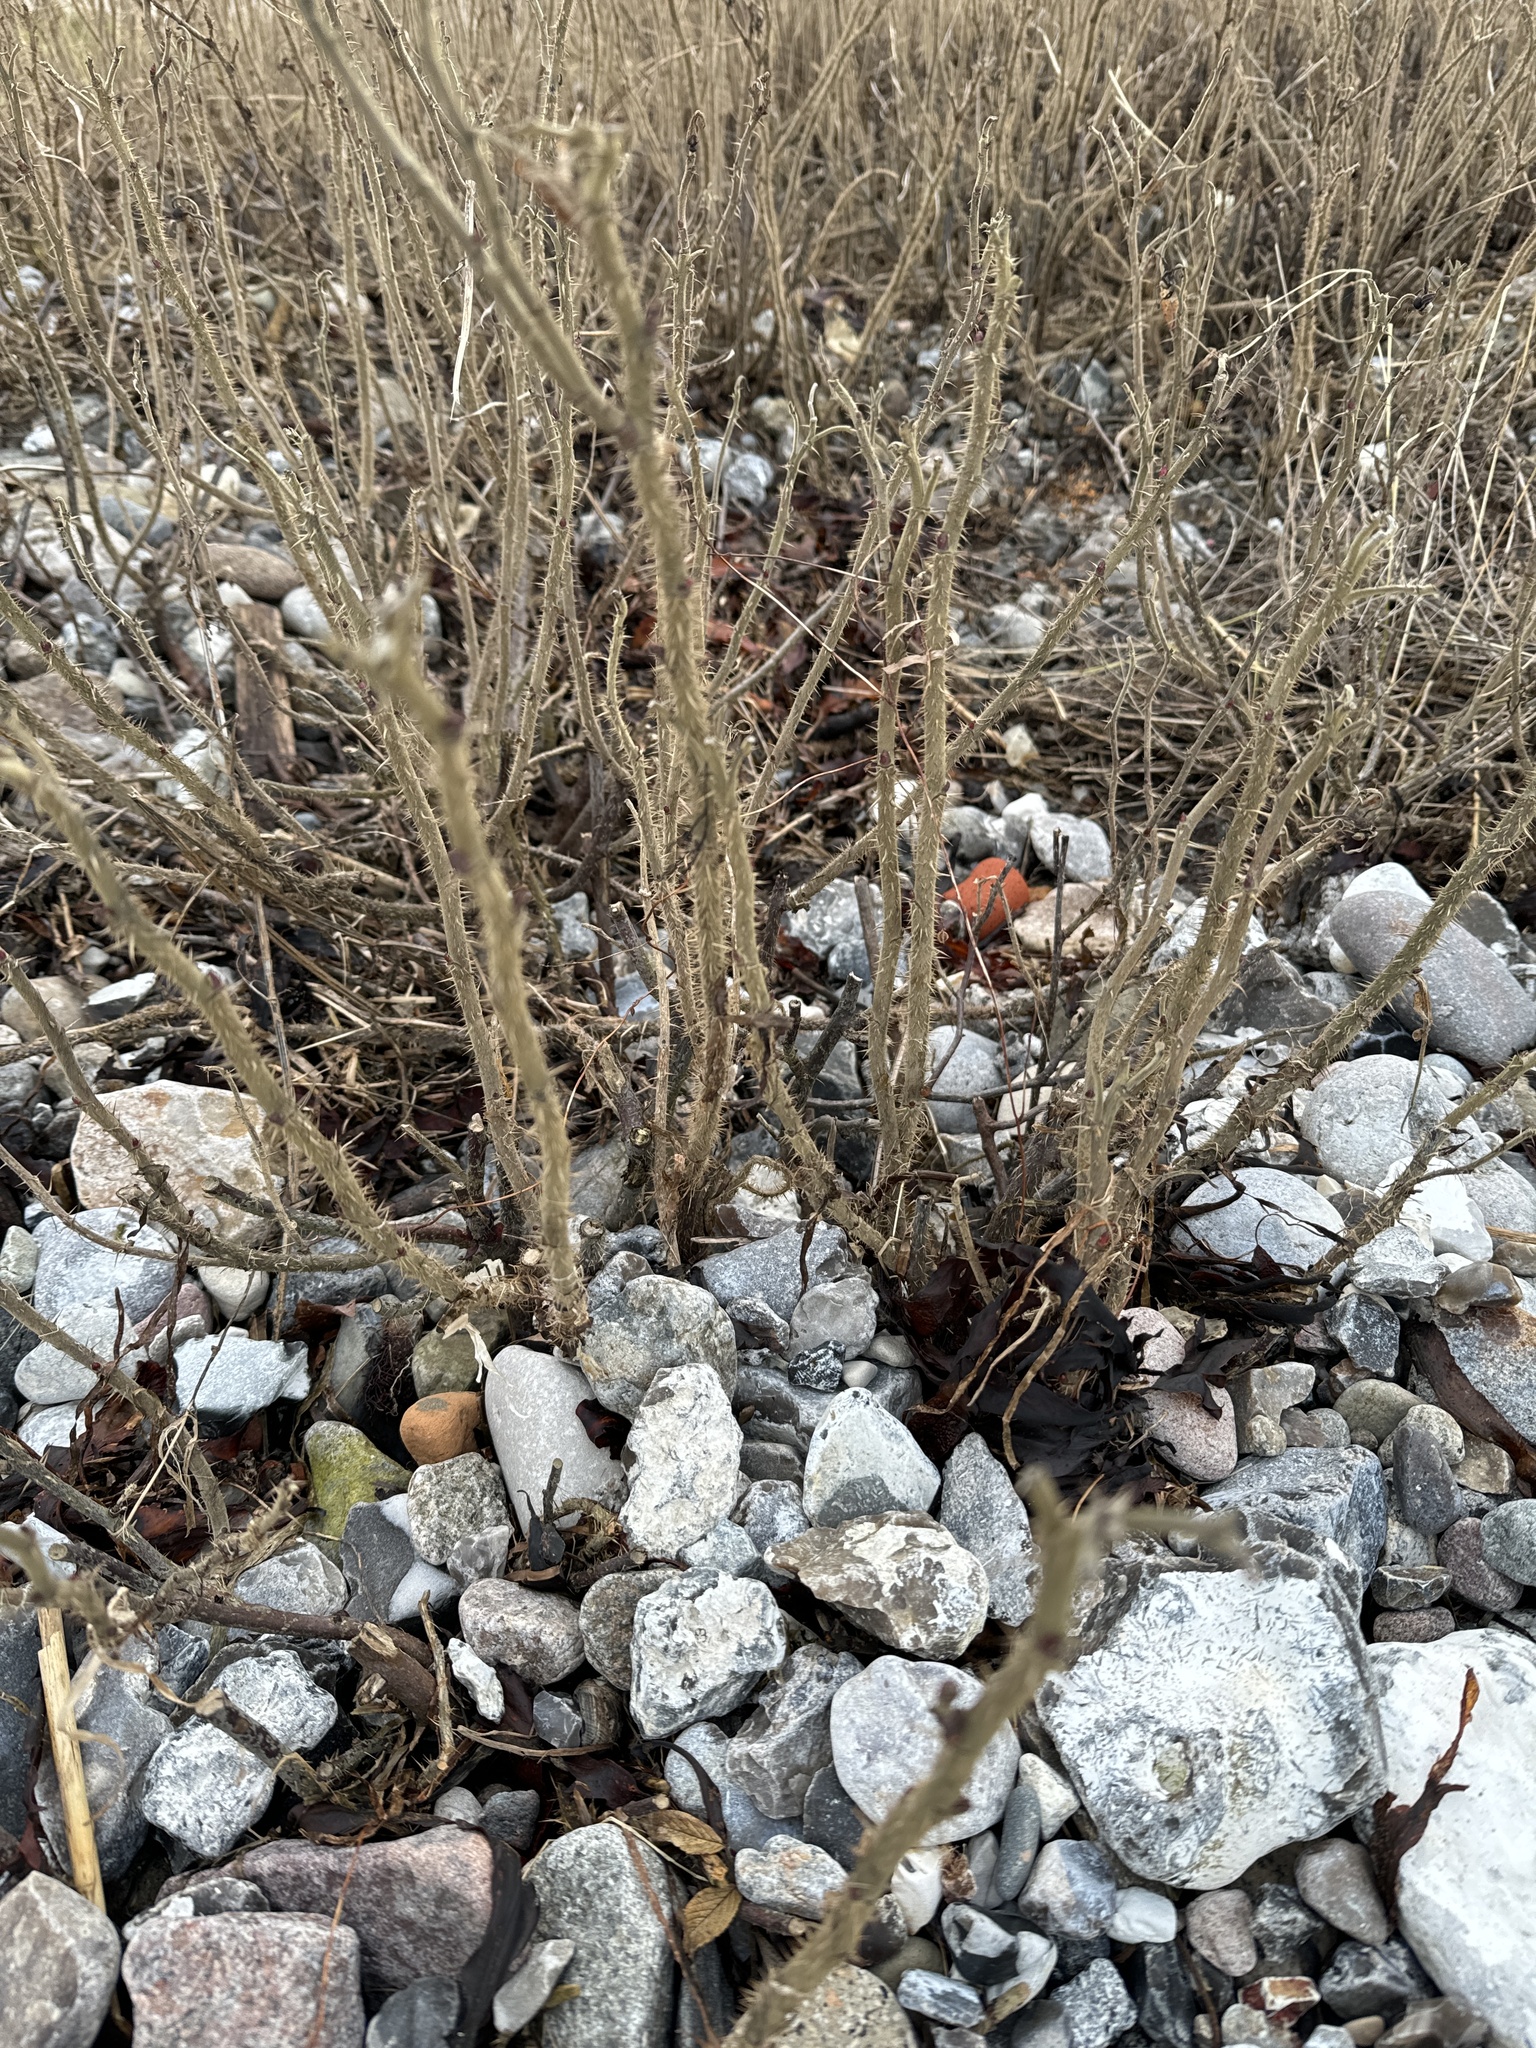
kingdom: Plantae
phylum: Tracheophyta
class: Magnoliopsida
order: Rosales
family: Rosaceae
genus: Rosa
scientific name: Rosa rugosa
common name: Japanese rose
